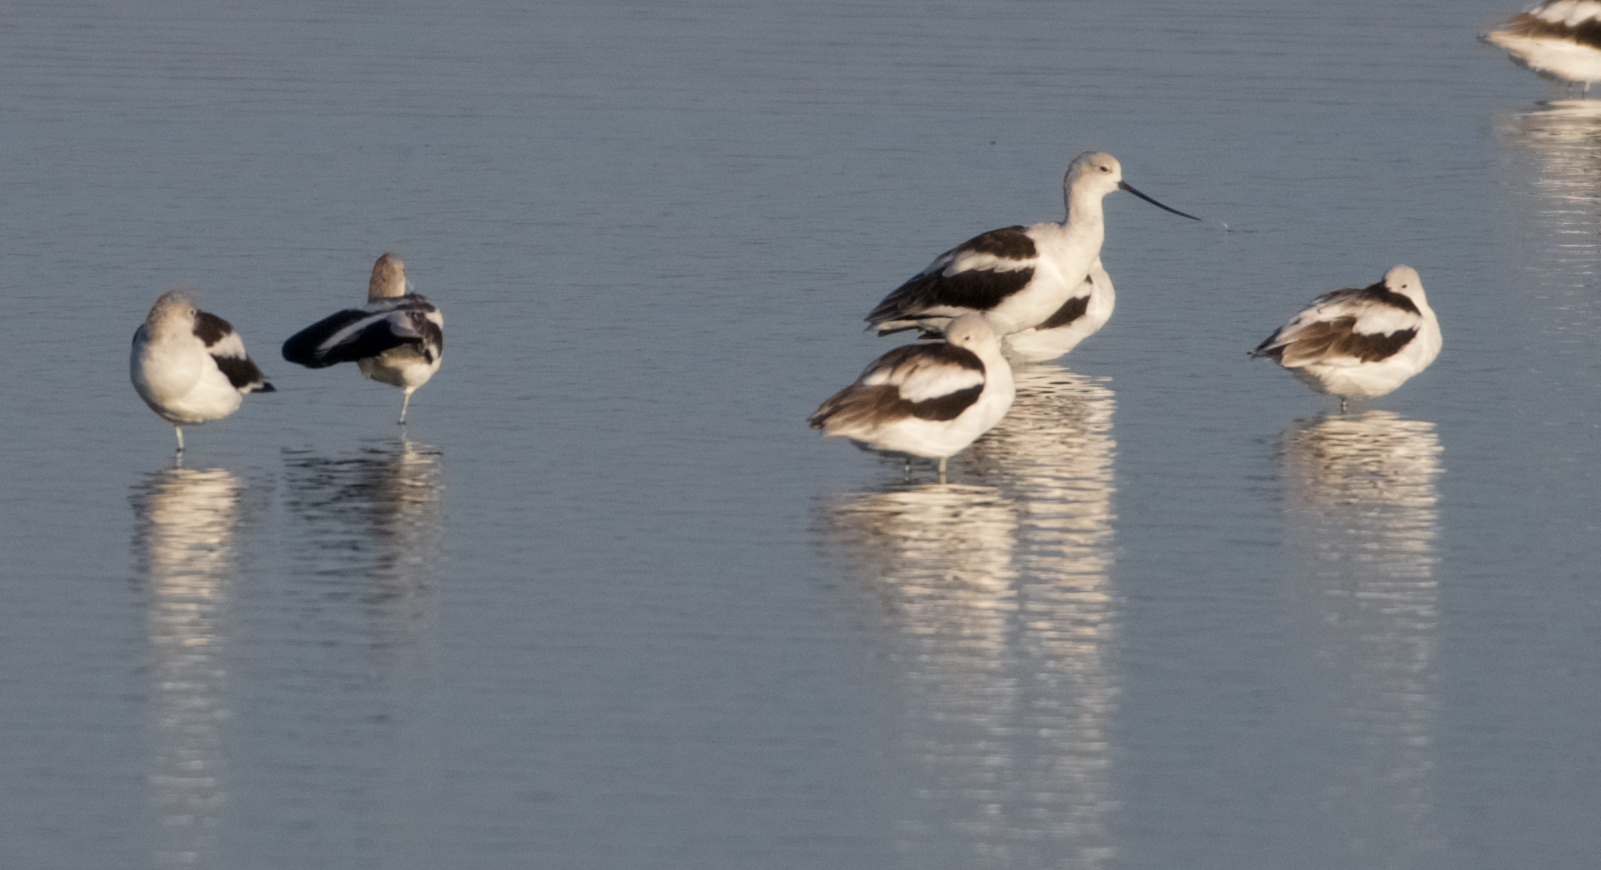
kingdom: Animalia
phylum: Chordata
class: Aves
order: Charadriiformes
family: Recurvirostridae
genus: Recurvirostra
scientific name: Recurvirostra americana
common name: American avocet
